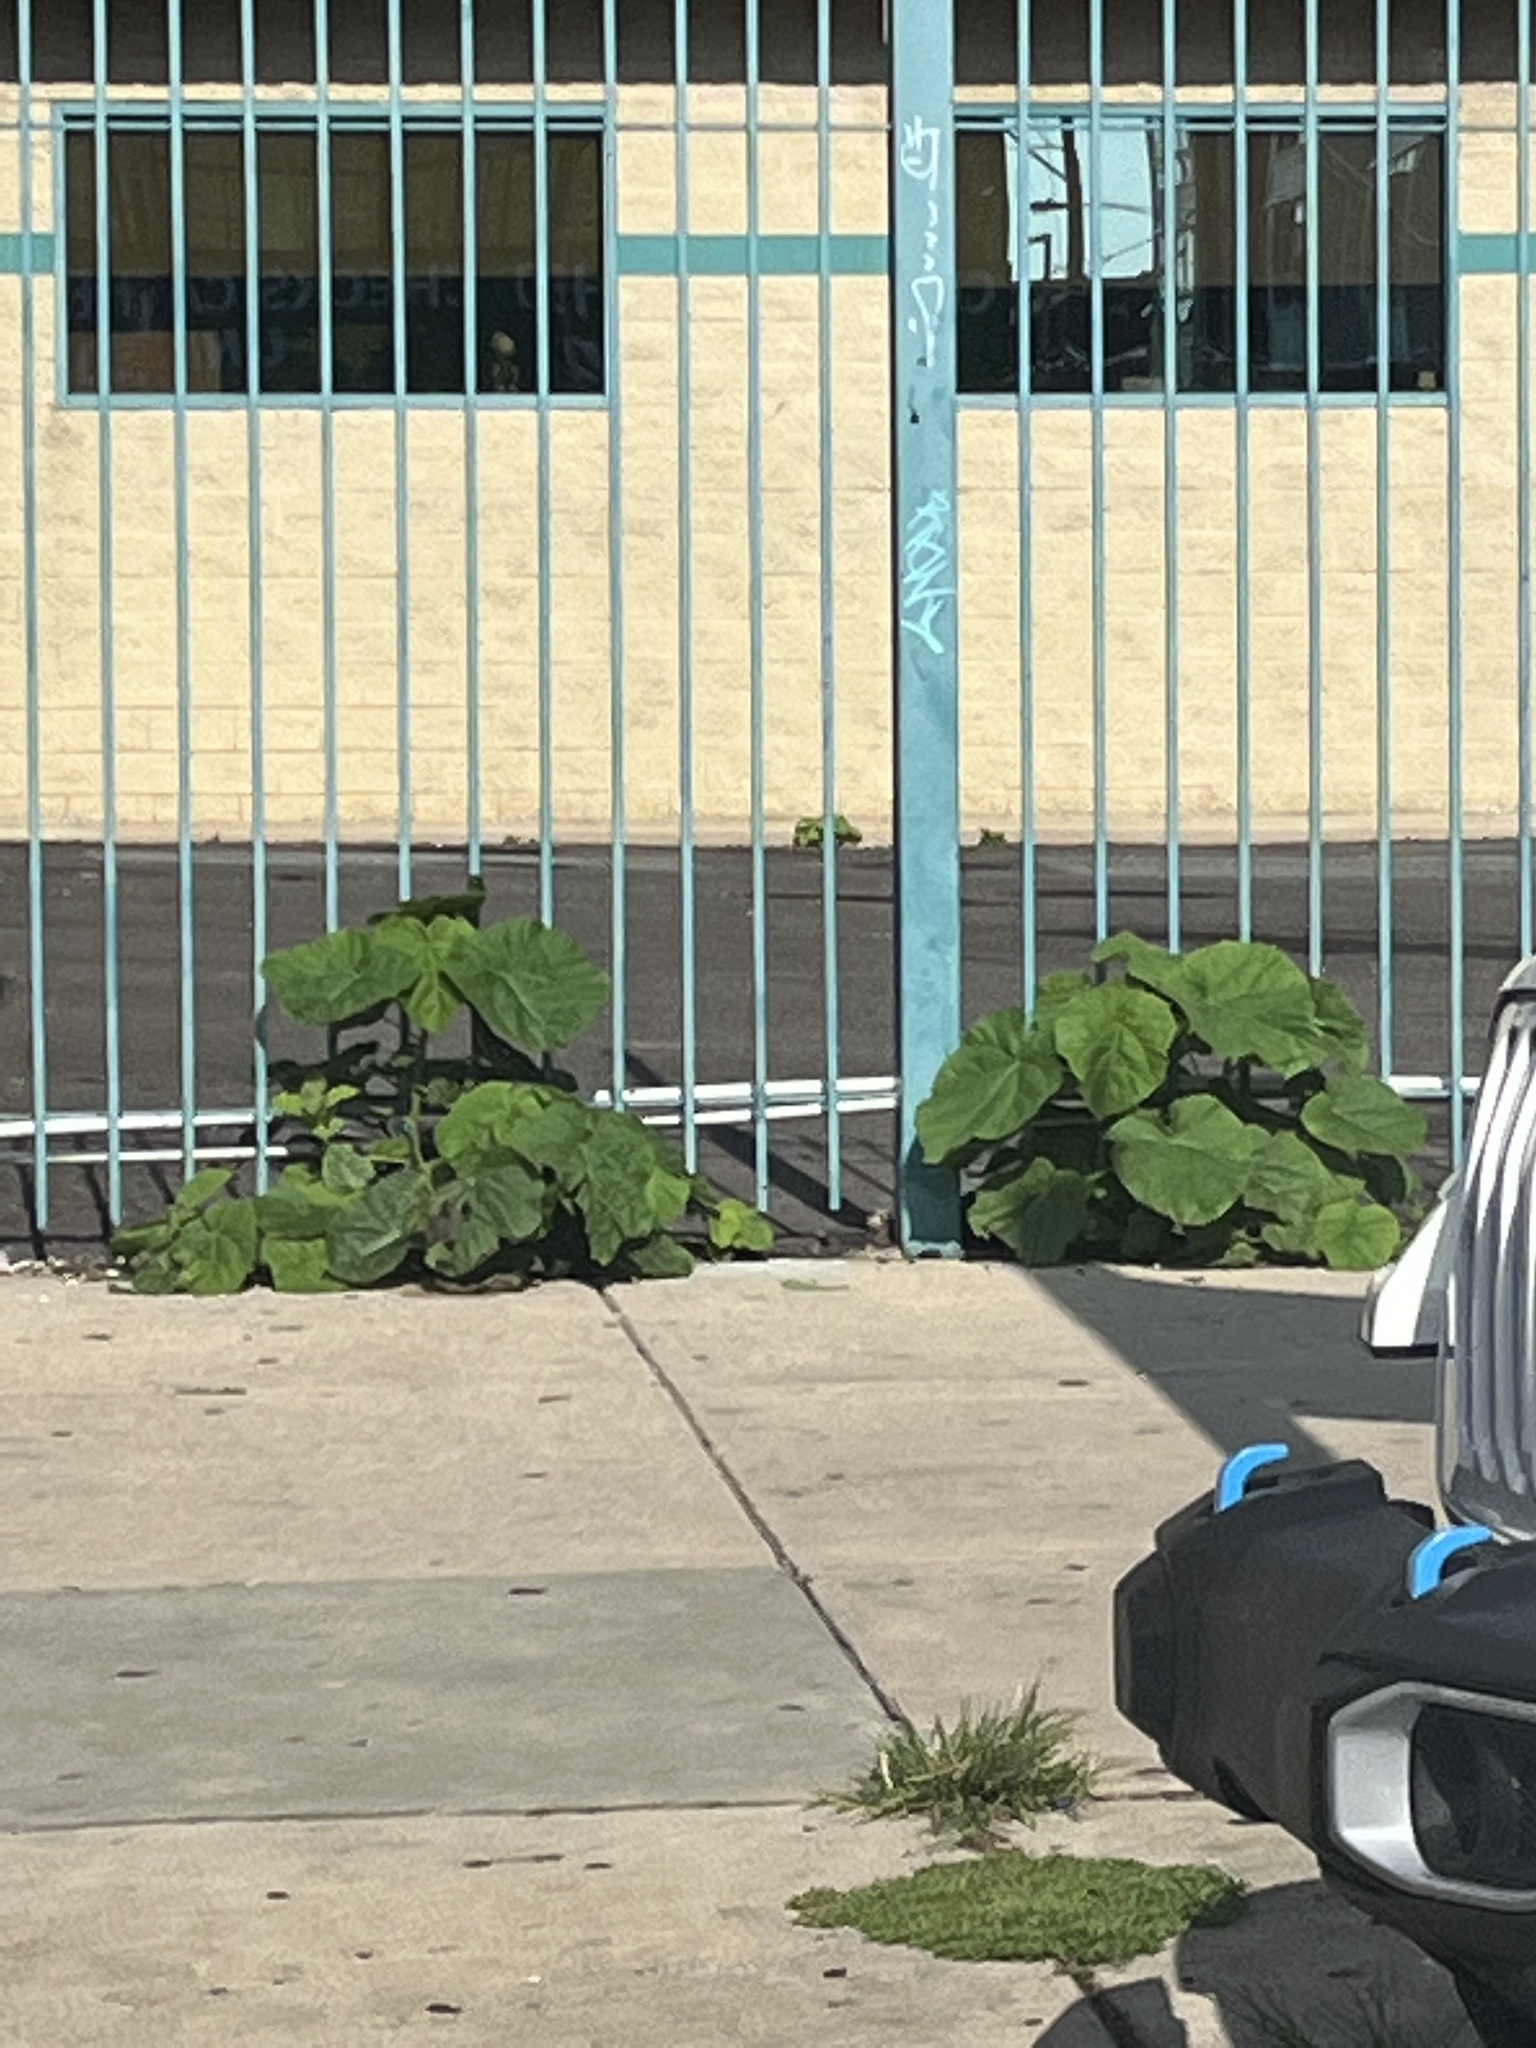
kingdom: Plantae
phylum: Tracheophyta
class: Magnoliopsida
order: Lamiales
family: Paulowniaceae
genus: Paulownia
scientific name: Paulownia tomentosa
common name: Foxglove-tree
